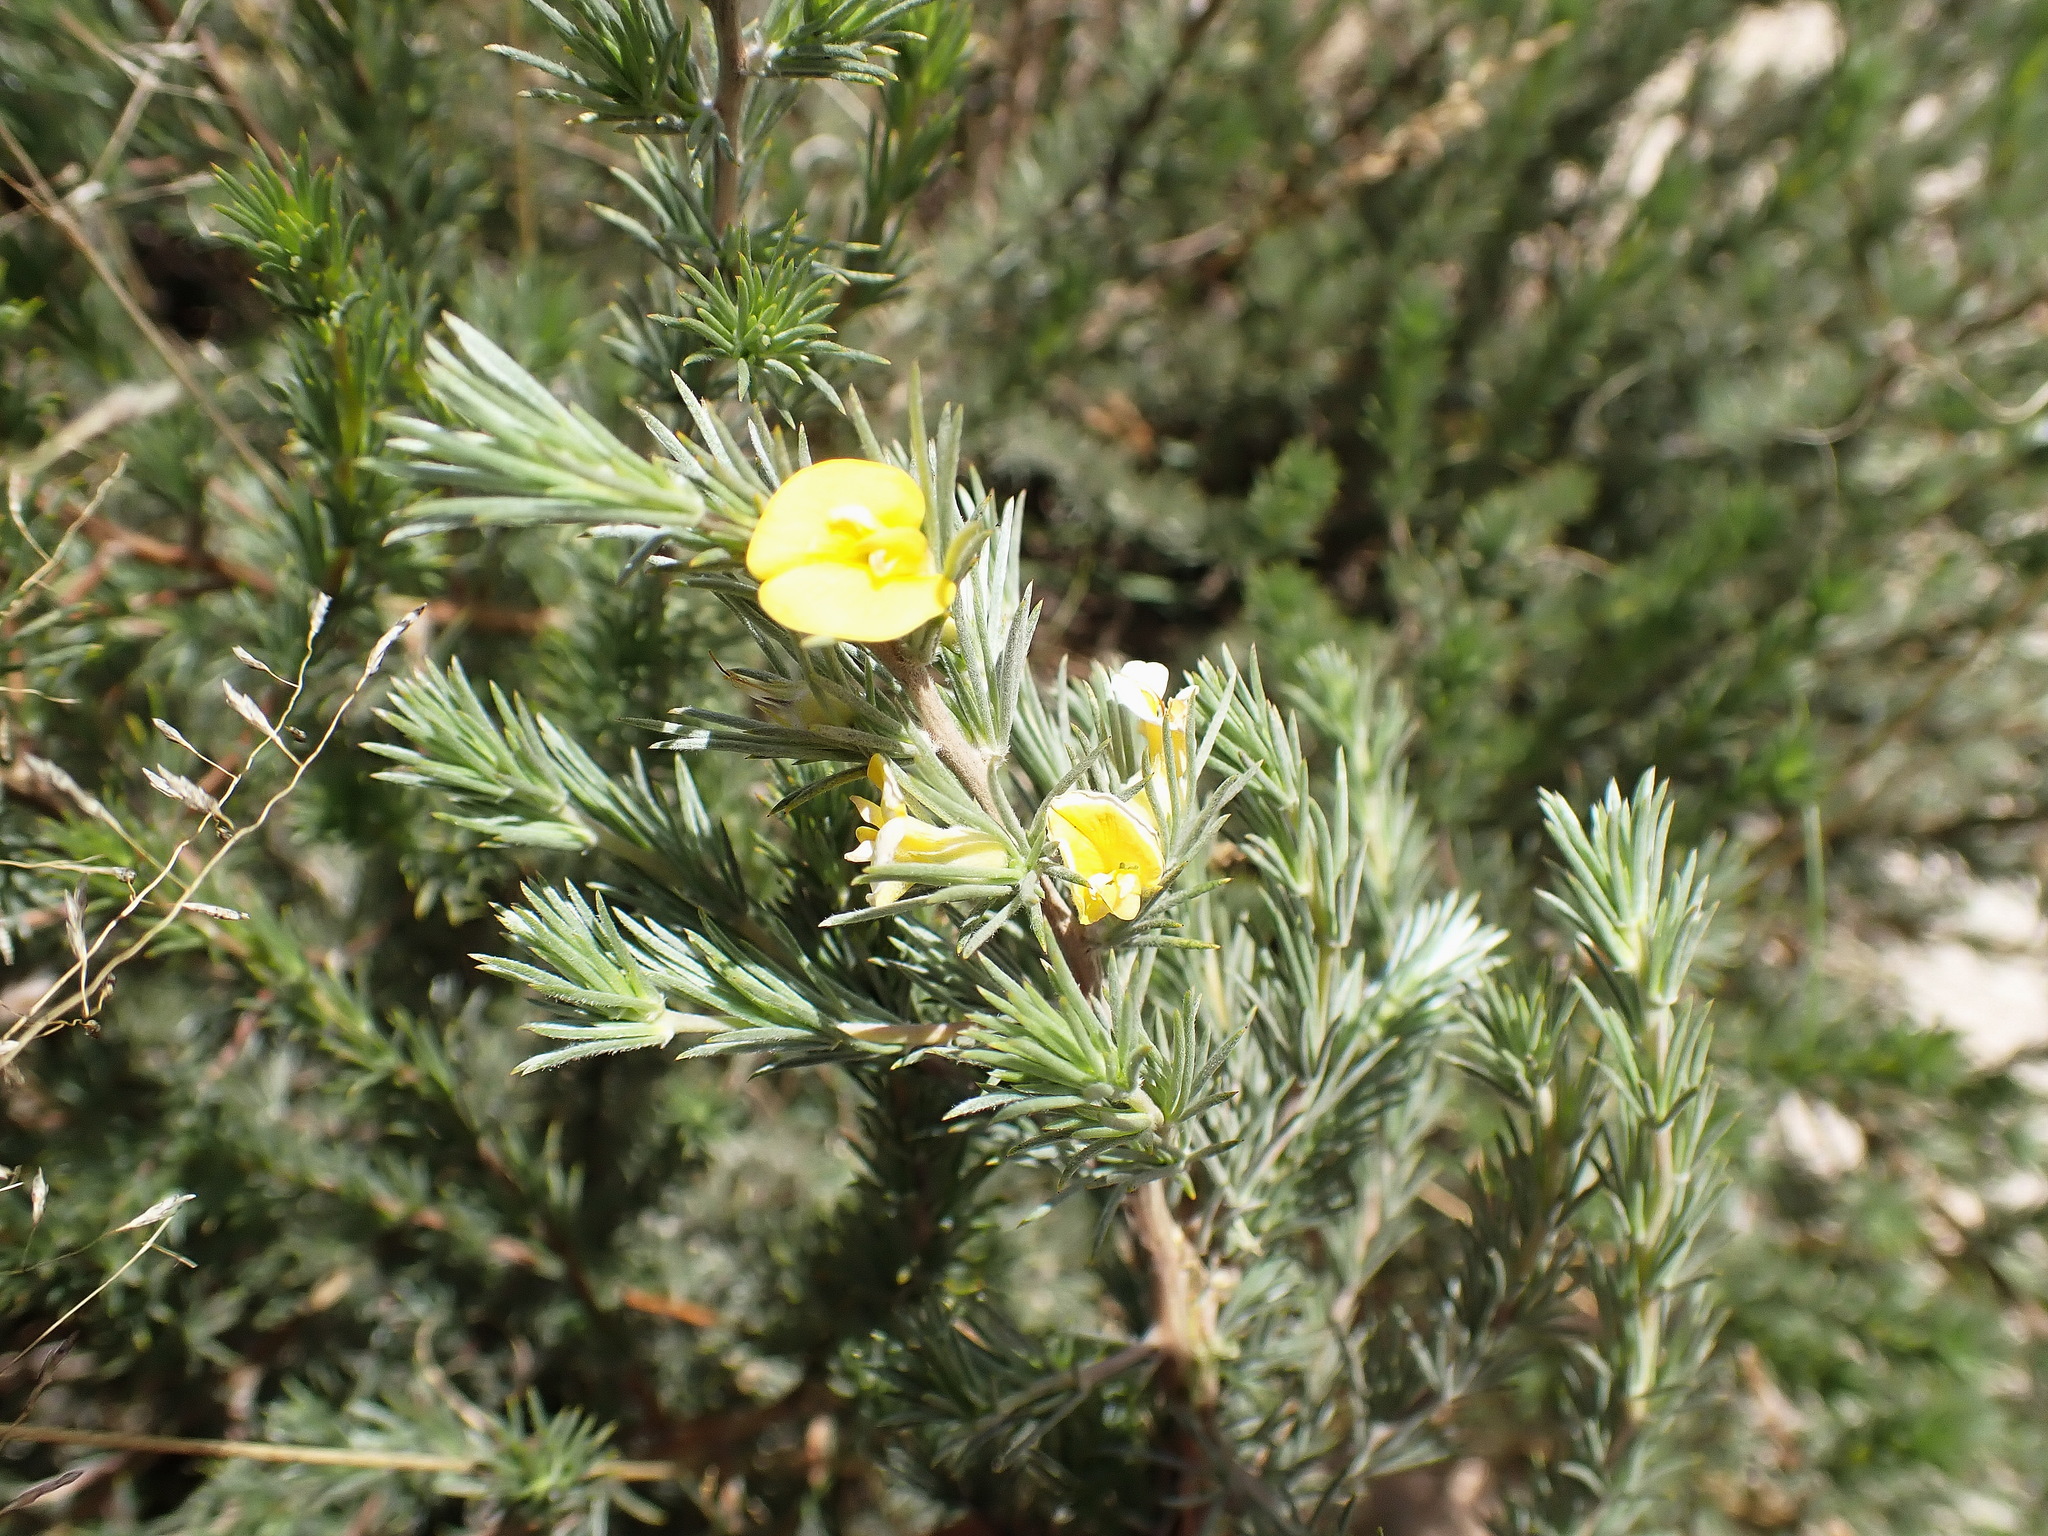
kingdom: Plantae
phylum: Tracheophyta
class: Magnoliopsida
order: Fabales
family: Fabaceae
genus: Aspalathus
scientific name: Aspalathus glabrescens
